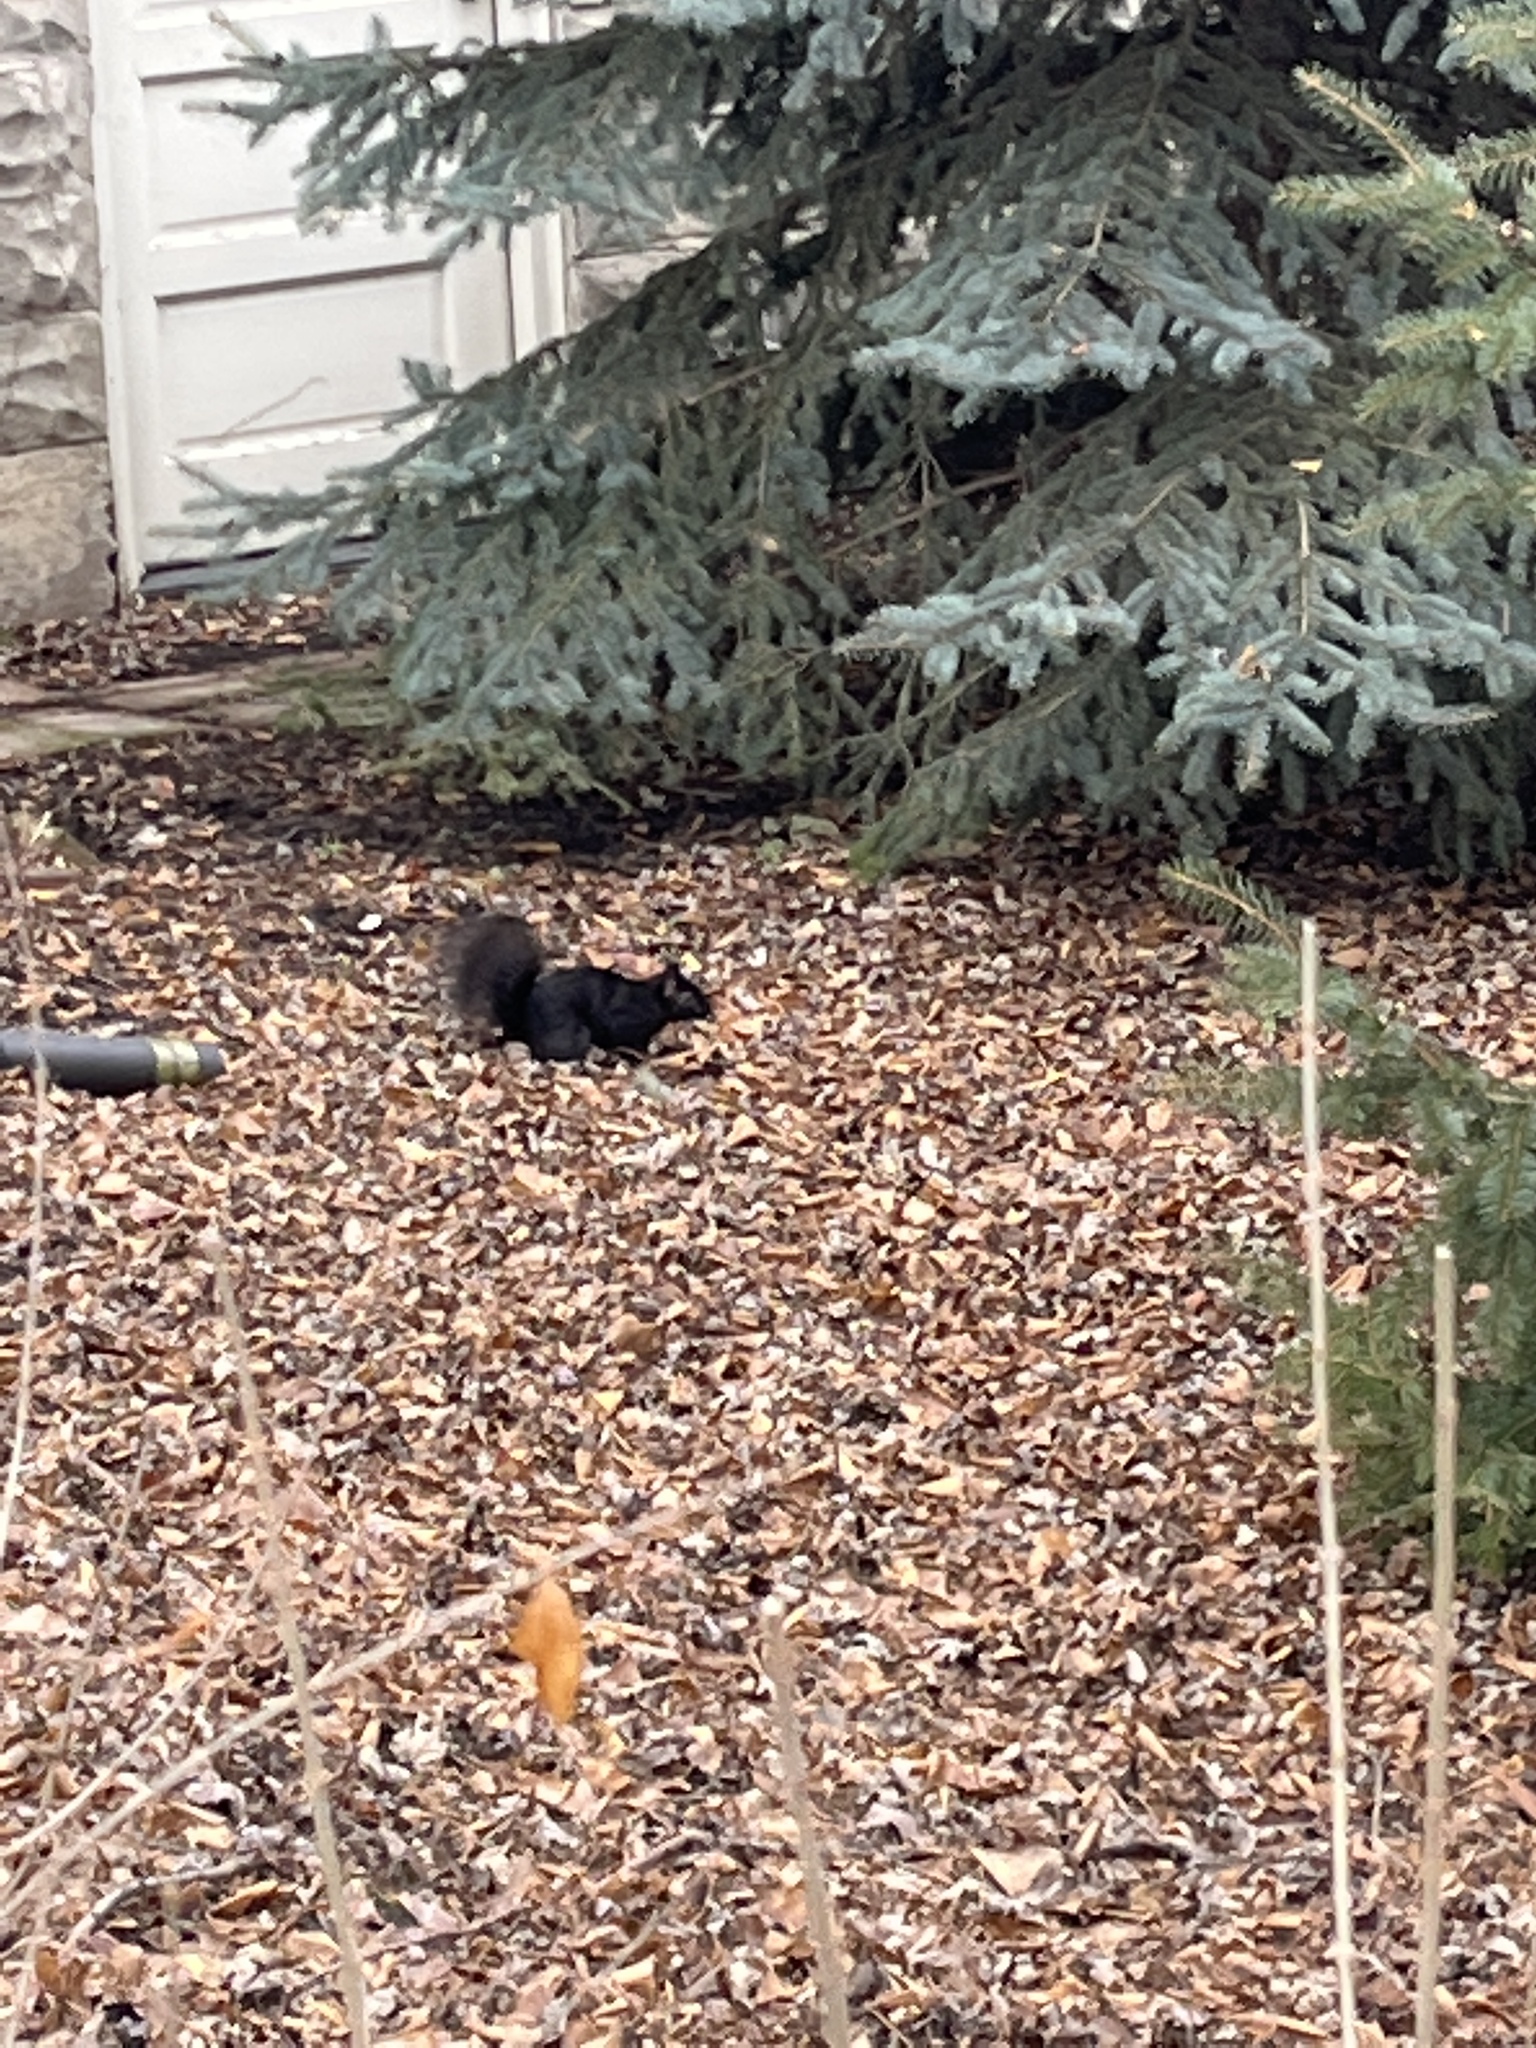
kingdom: Animalia
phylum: Chordata
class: Mammalia
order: Rodentia
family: Sciuridae
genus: Sciurus
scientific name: Sciurus carolinensis
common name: Eastern gray squirrel
